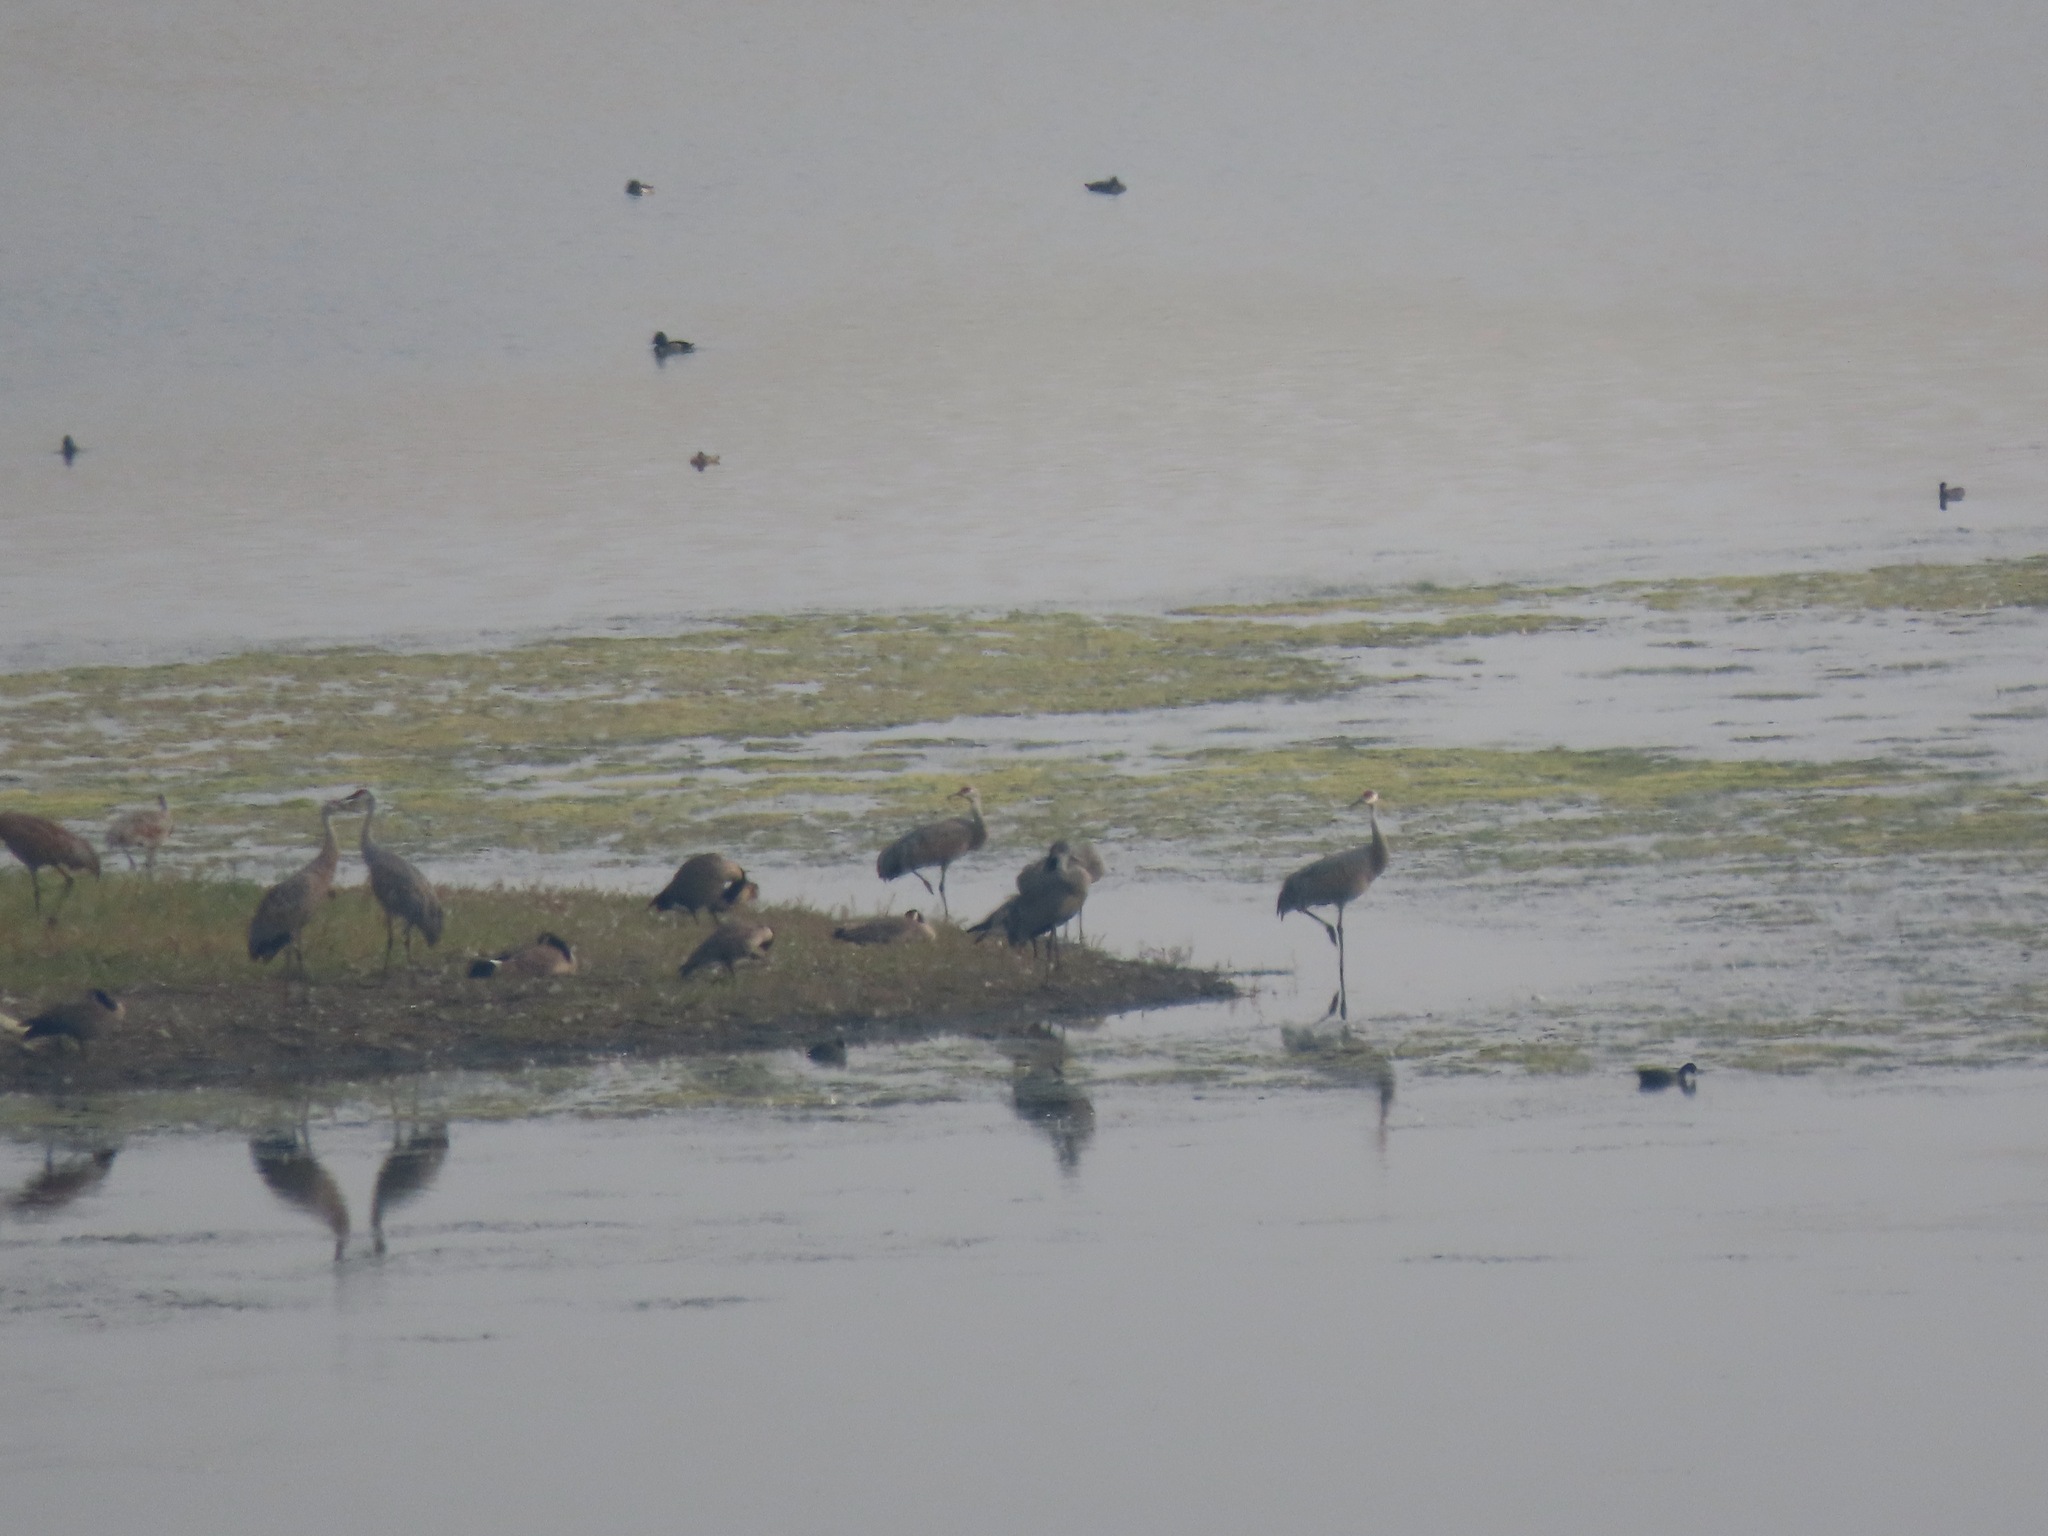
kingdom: Animalia
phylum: Chordata
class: Aves
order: Gruiformes
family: Gruidae
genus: Grus
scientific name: Grus canadensis
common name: Sandhill crane
